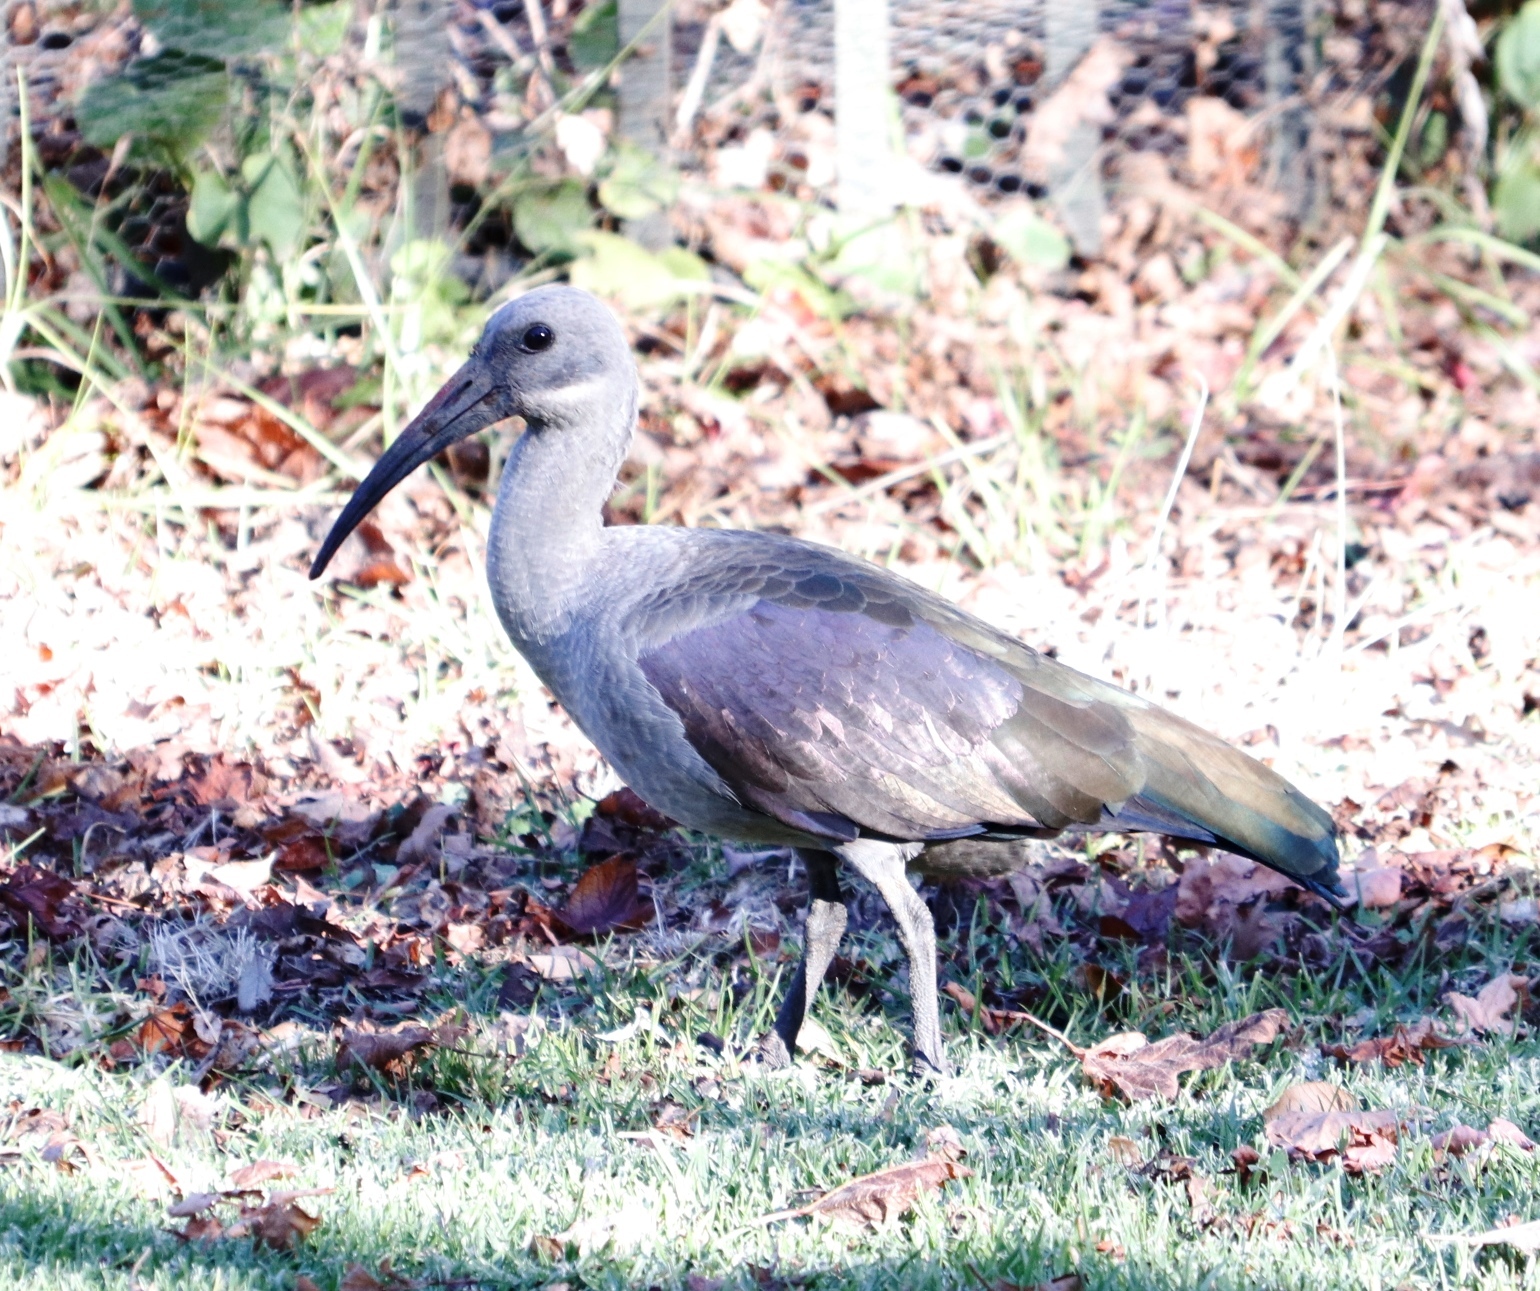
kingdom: Animalia
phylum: Chordata
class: Aves
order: Pelecaniformes
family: Threskiornithidae
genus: Bostrychia
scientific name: Bostrychia hagedash
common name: Hadada ibis
